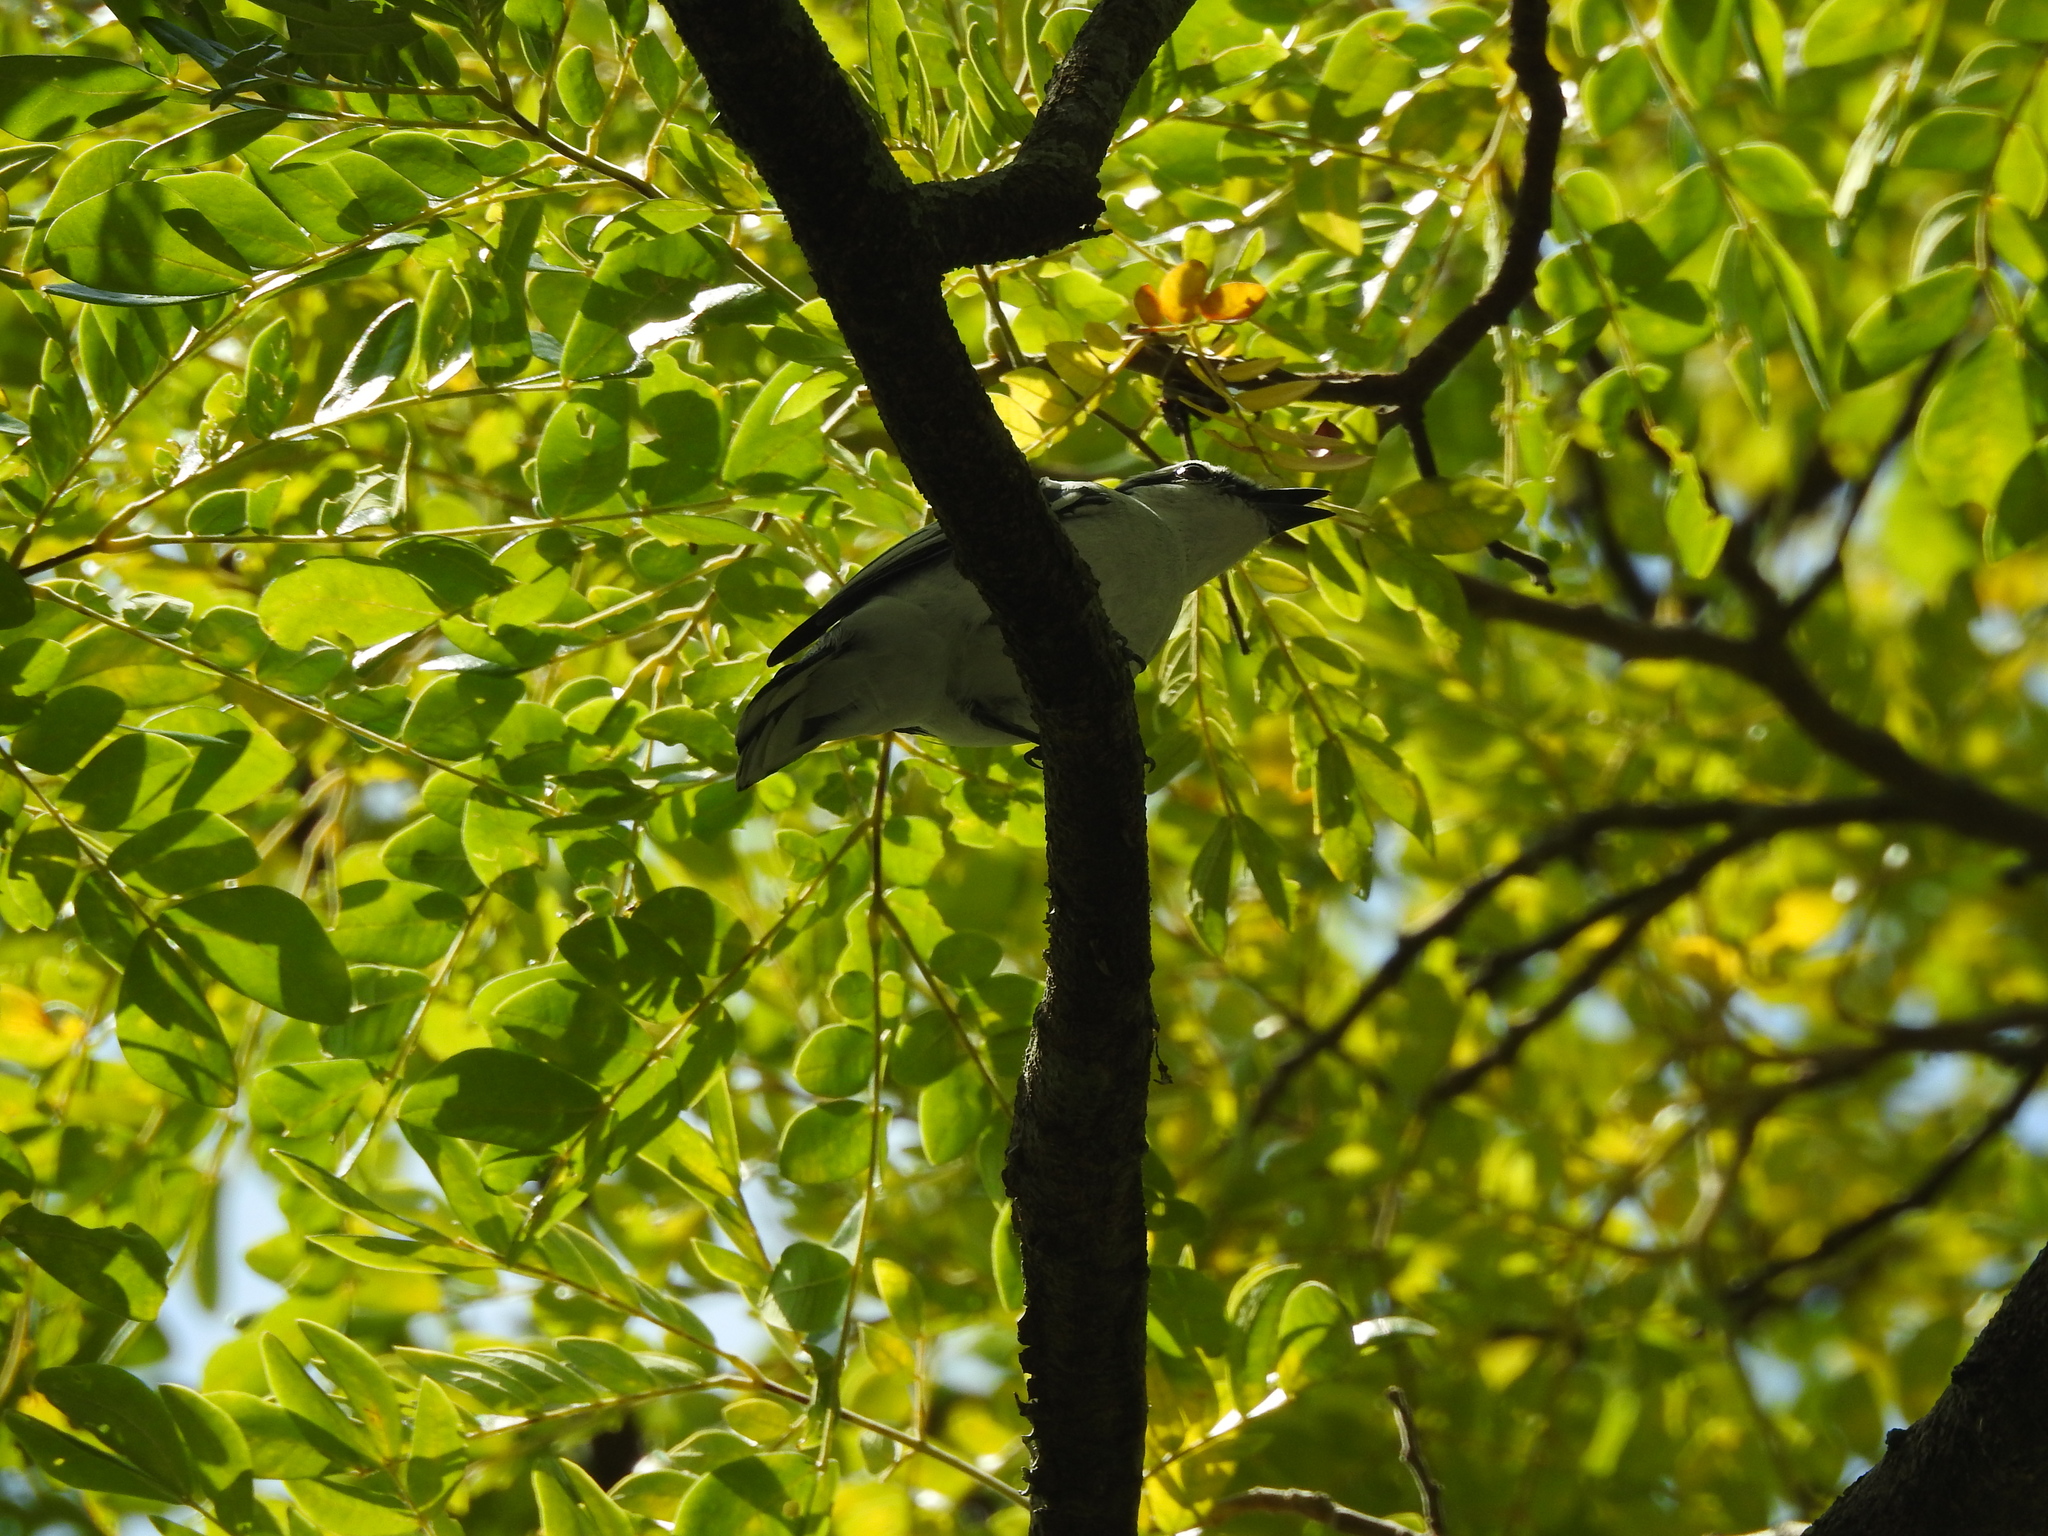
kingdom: Animalia
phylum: Chordata
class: Aves
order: Passeriformes
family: Campephagidae
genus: Lalage
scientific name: Lalage nigra
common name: Pied triller
